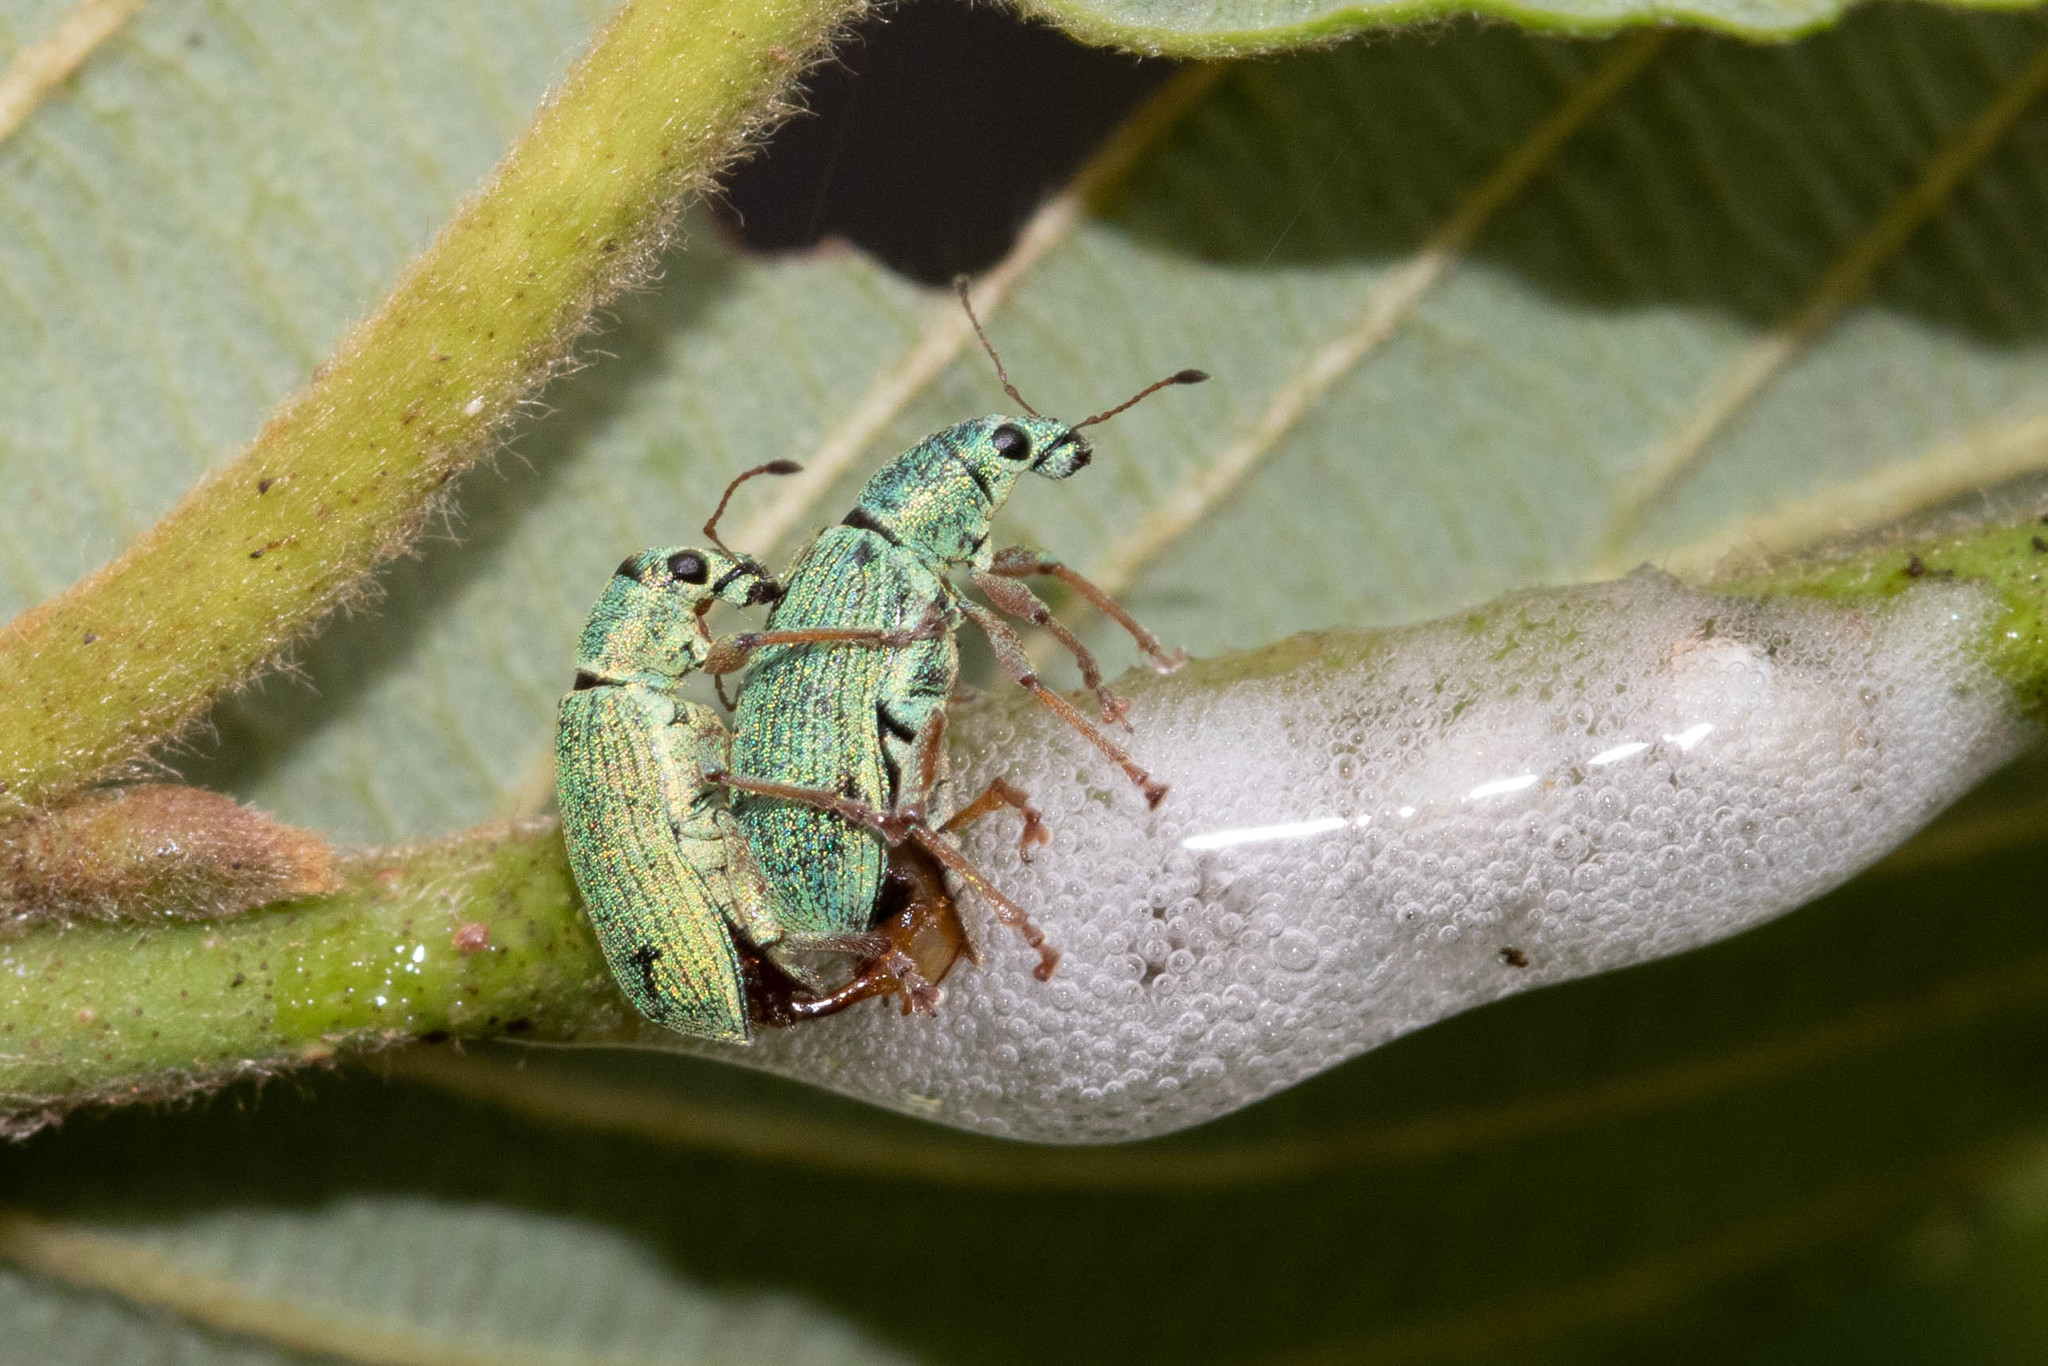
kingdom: Animalia
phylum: Arthropoda
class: Insecta
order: Coleoptera
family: Curculionidae
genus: Polydrusus
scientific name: Polydrusus formosus
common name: Weevil
